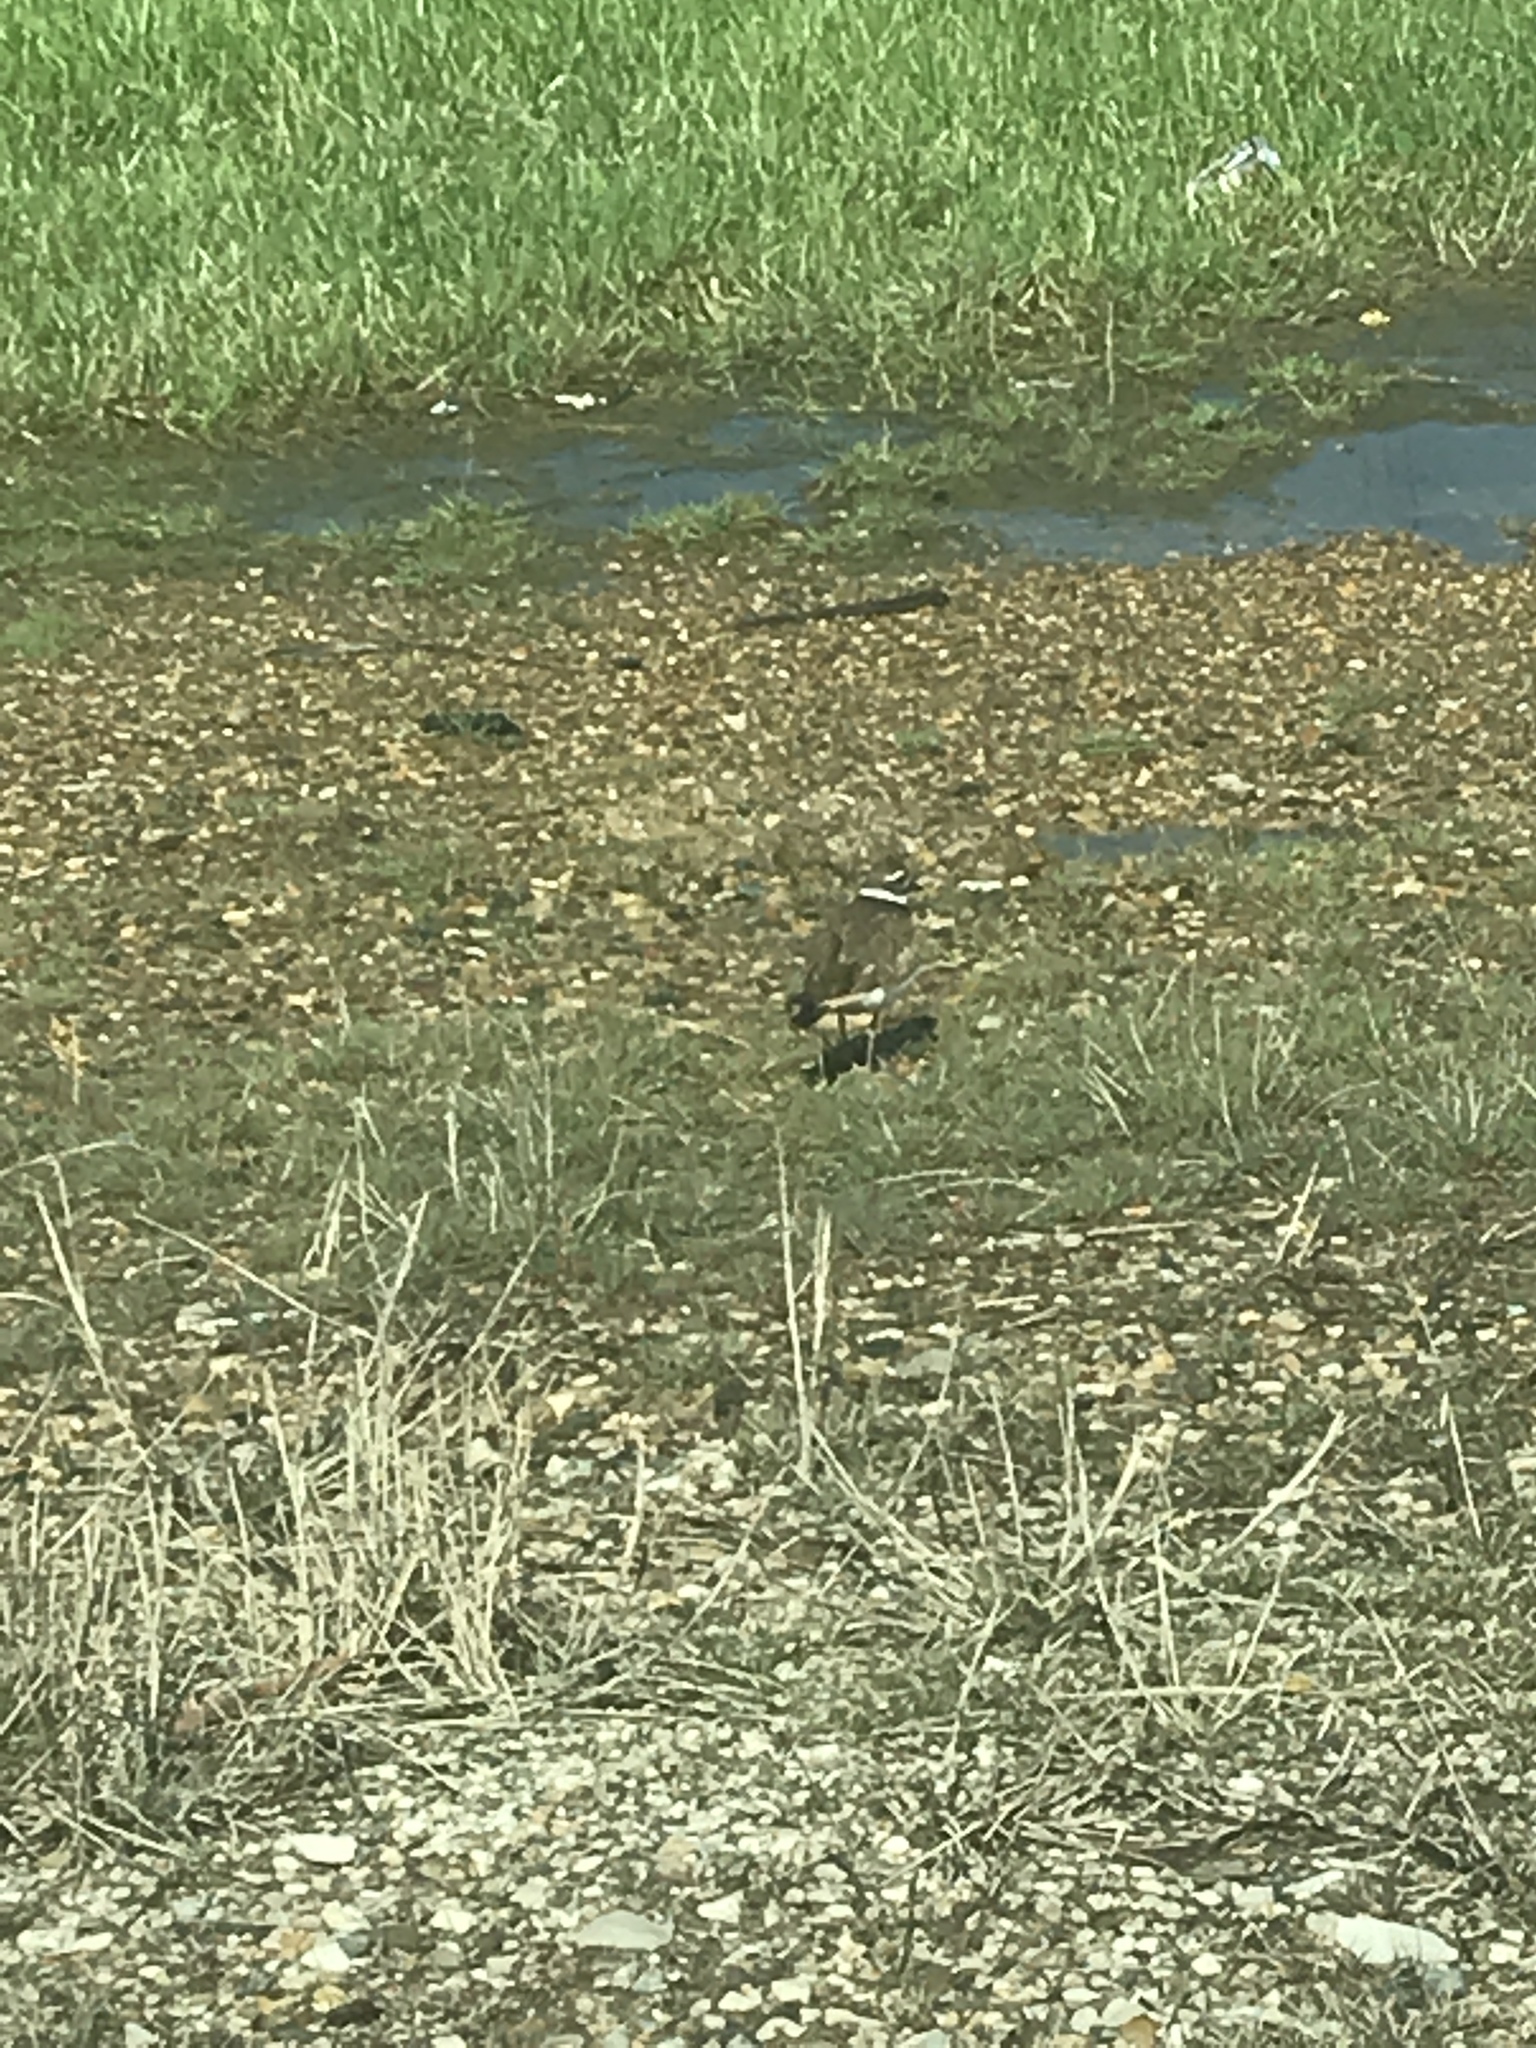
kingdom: Animalia
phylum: Chordata
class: Aves
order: Charadriiformes
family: Charadriidae
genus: Charadrius
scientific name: Charadrius vociferus
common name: Killdeer
